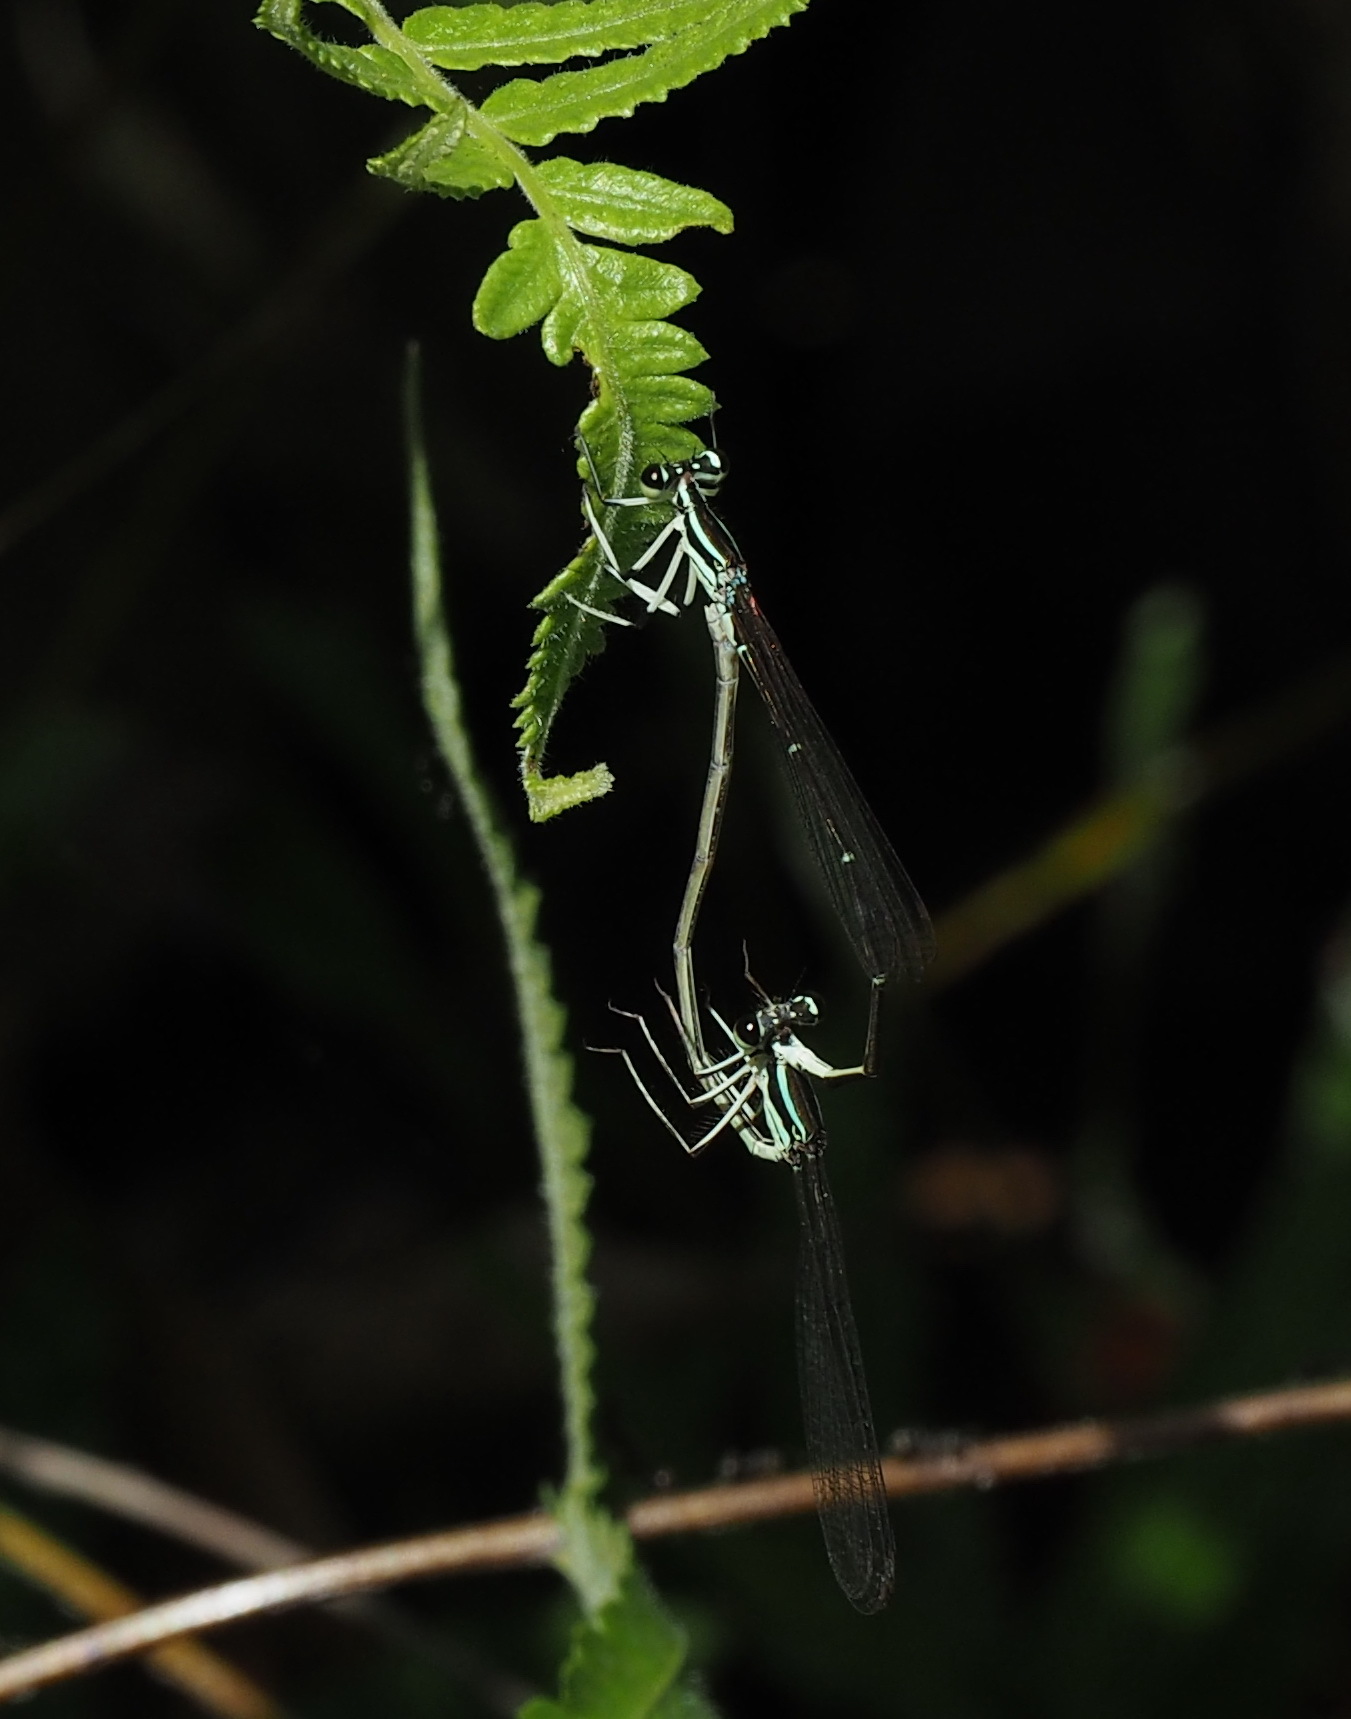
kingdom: Animalia
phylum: Arthropoda
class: Insecta
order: Odonata
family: Platycnemididae
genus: Pseudocopera
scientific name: Pseudocopera ciliata
